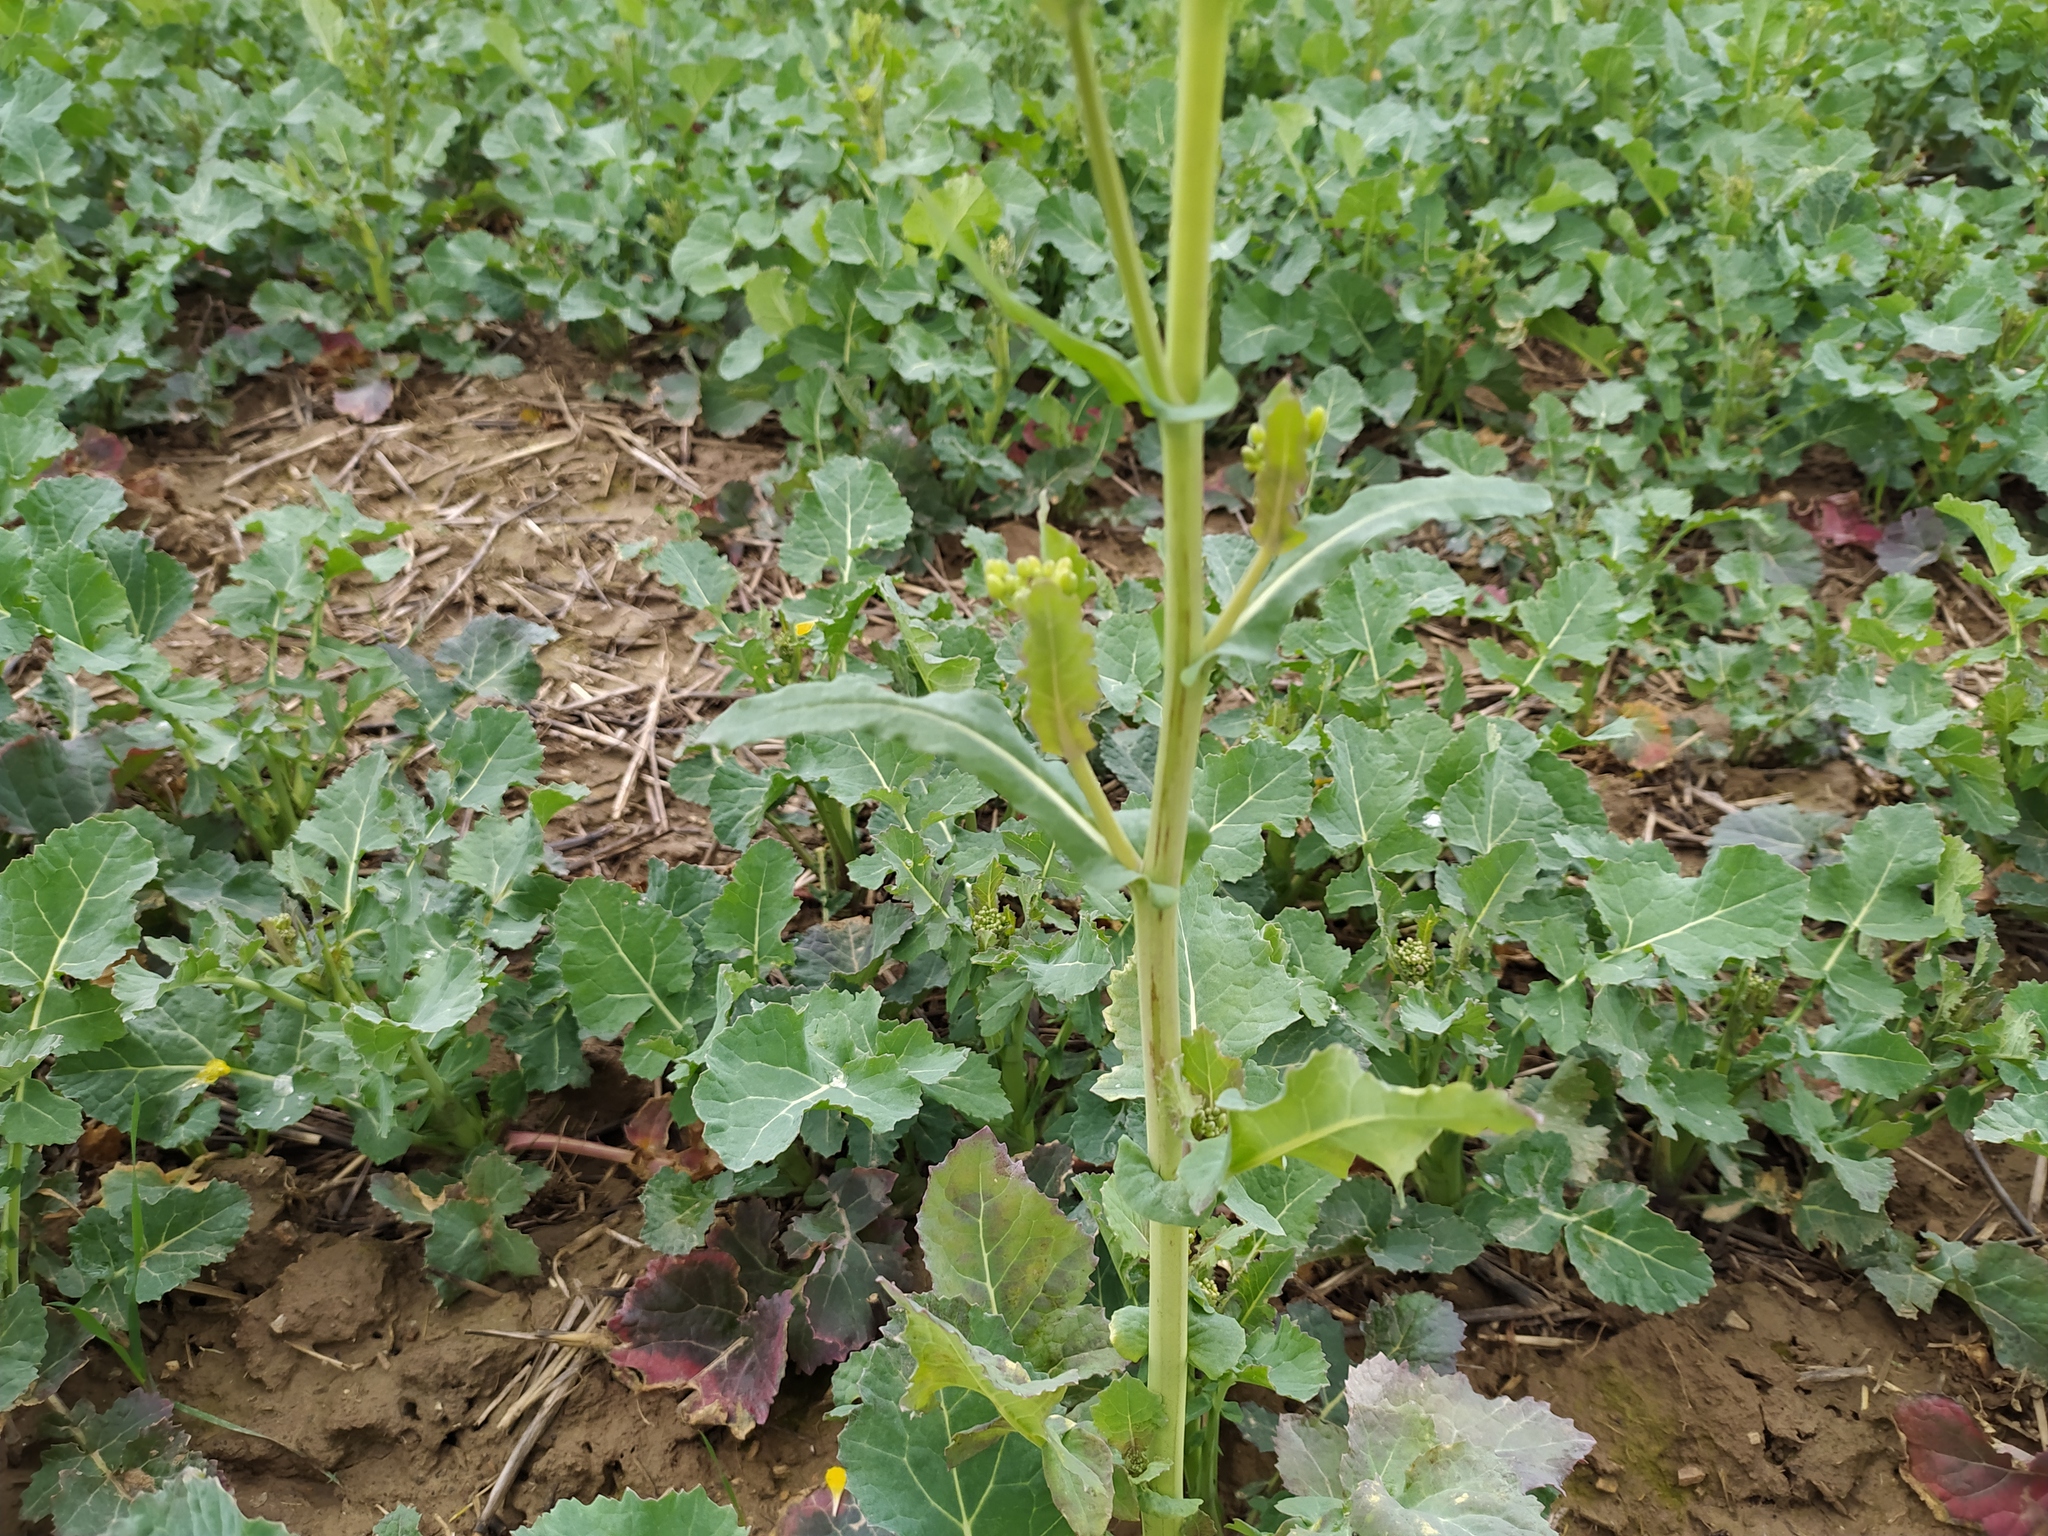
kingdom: Plantae
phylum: Tracheophyta
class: Magnoliopsida
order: Brassicales
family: Brassicaceae
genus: Brassica
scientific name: Brassica napus
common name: Rape
